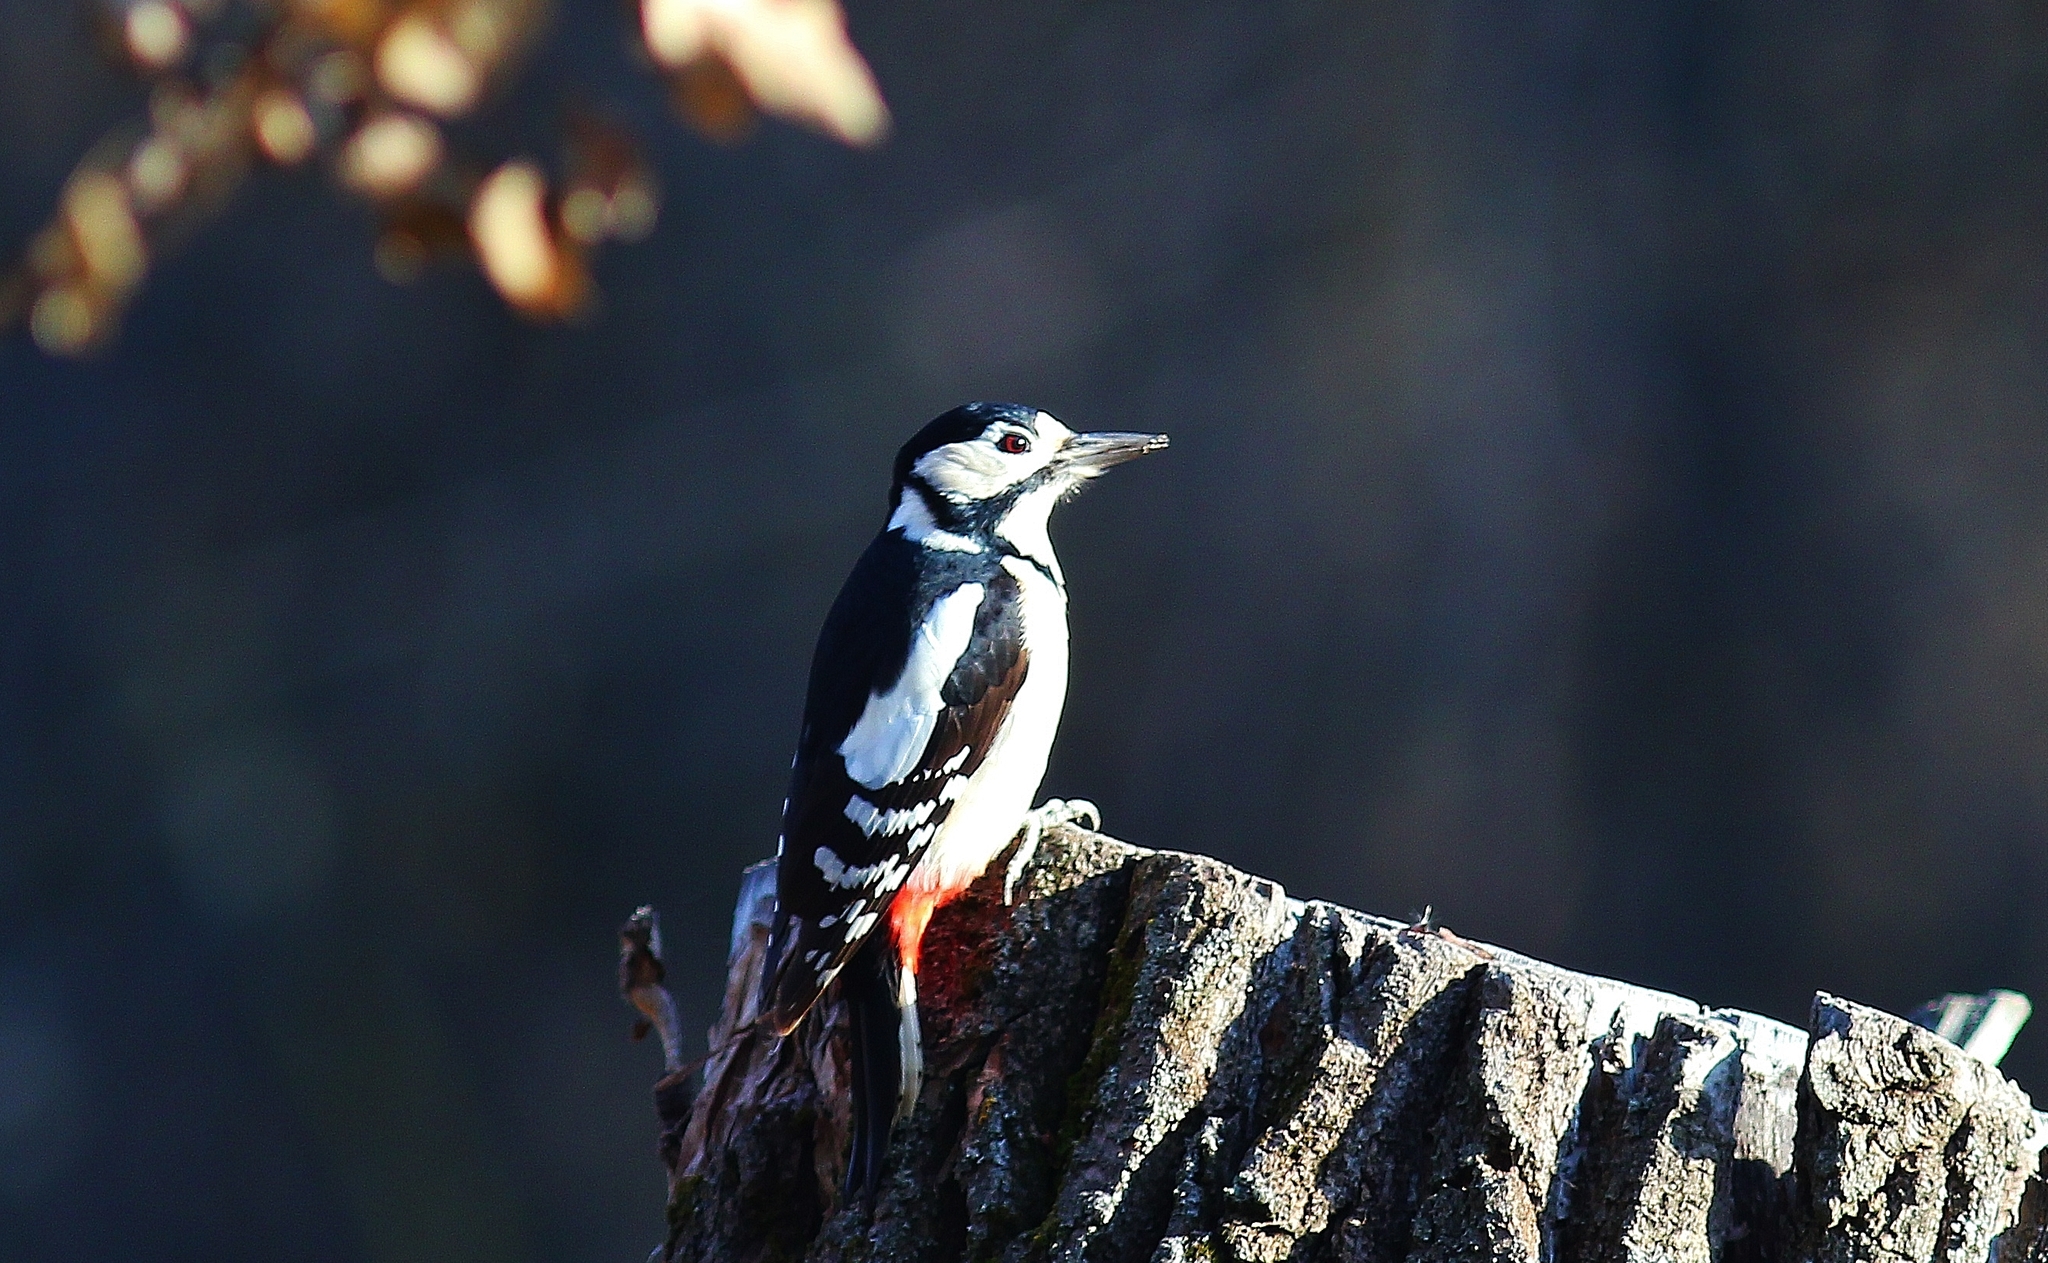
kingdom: Animalia
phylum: Chordata
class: Aves
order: Piciformes
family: Picidae
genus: Dendrocopos
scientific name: Dendrocopos major
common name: Great spotted woodpecker
